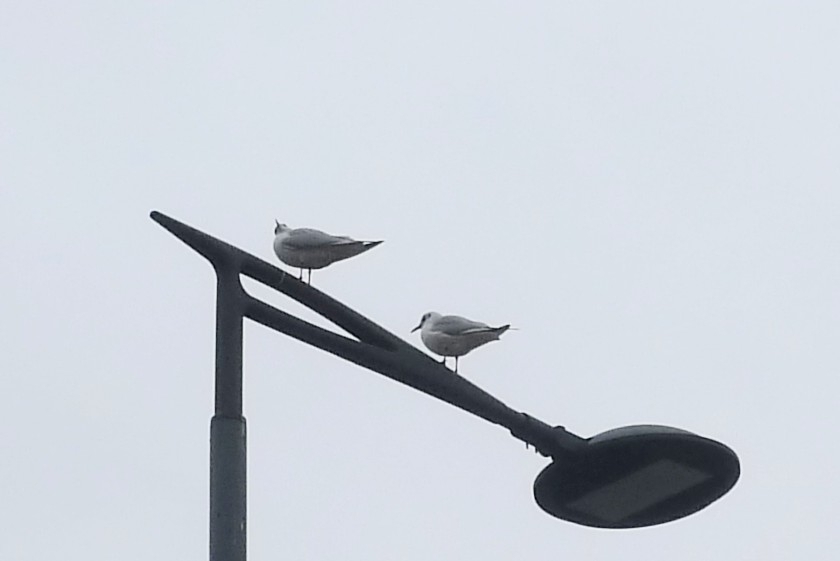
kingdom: Animalia
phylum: Chordata
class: Aves
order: Charadriiformes
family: Laridae
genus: Chroicocephalus
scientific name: Chroicocephalus ridibundus
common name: Black-headed gull
